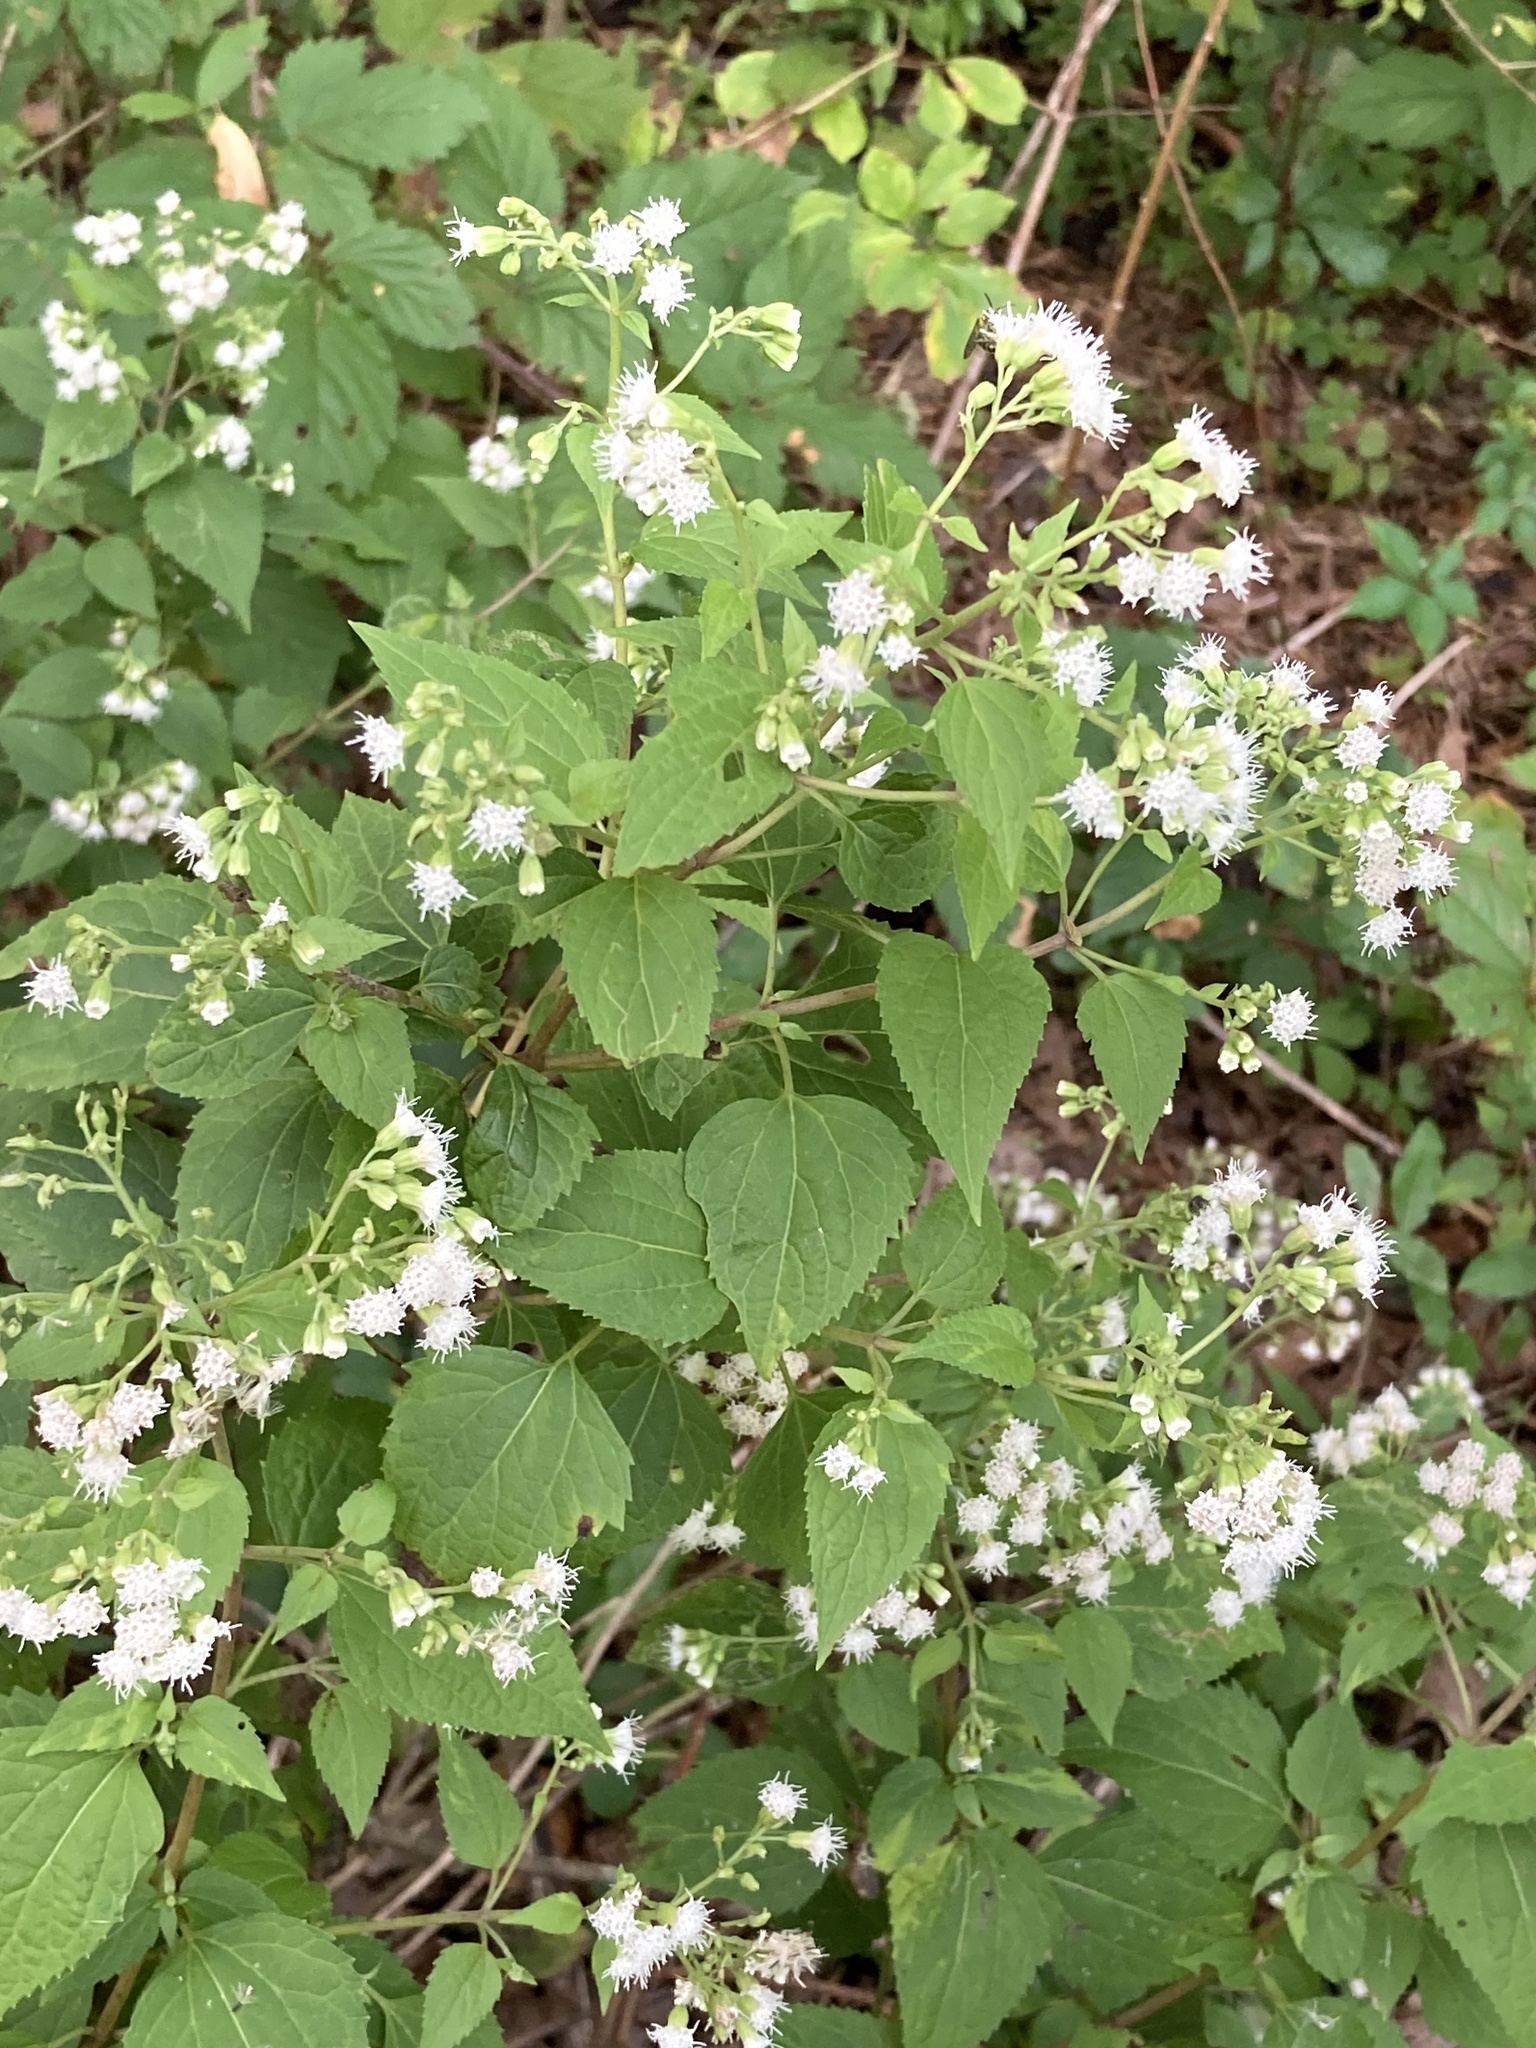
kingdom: Plantae
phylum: Tracheophyta
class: Magnoliopsida
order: Asterales
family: Asteraceae
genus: Ageratina
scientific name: Ageratina altissima
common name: White snakeroot
